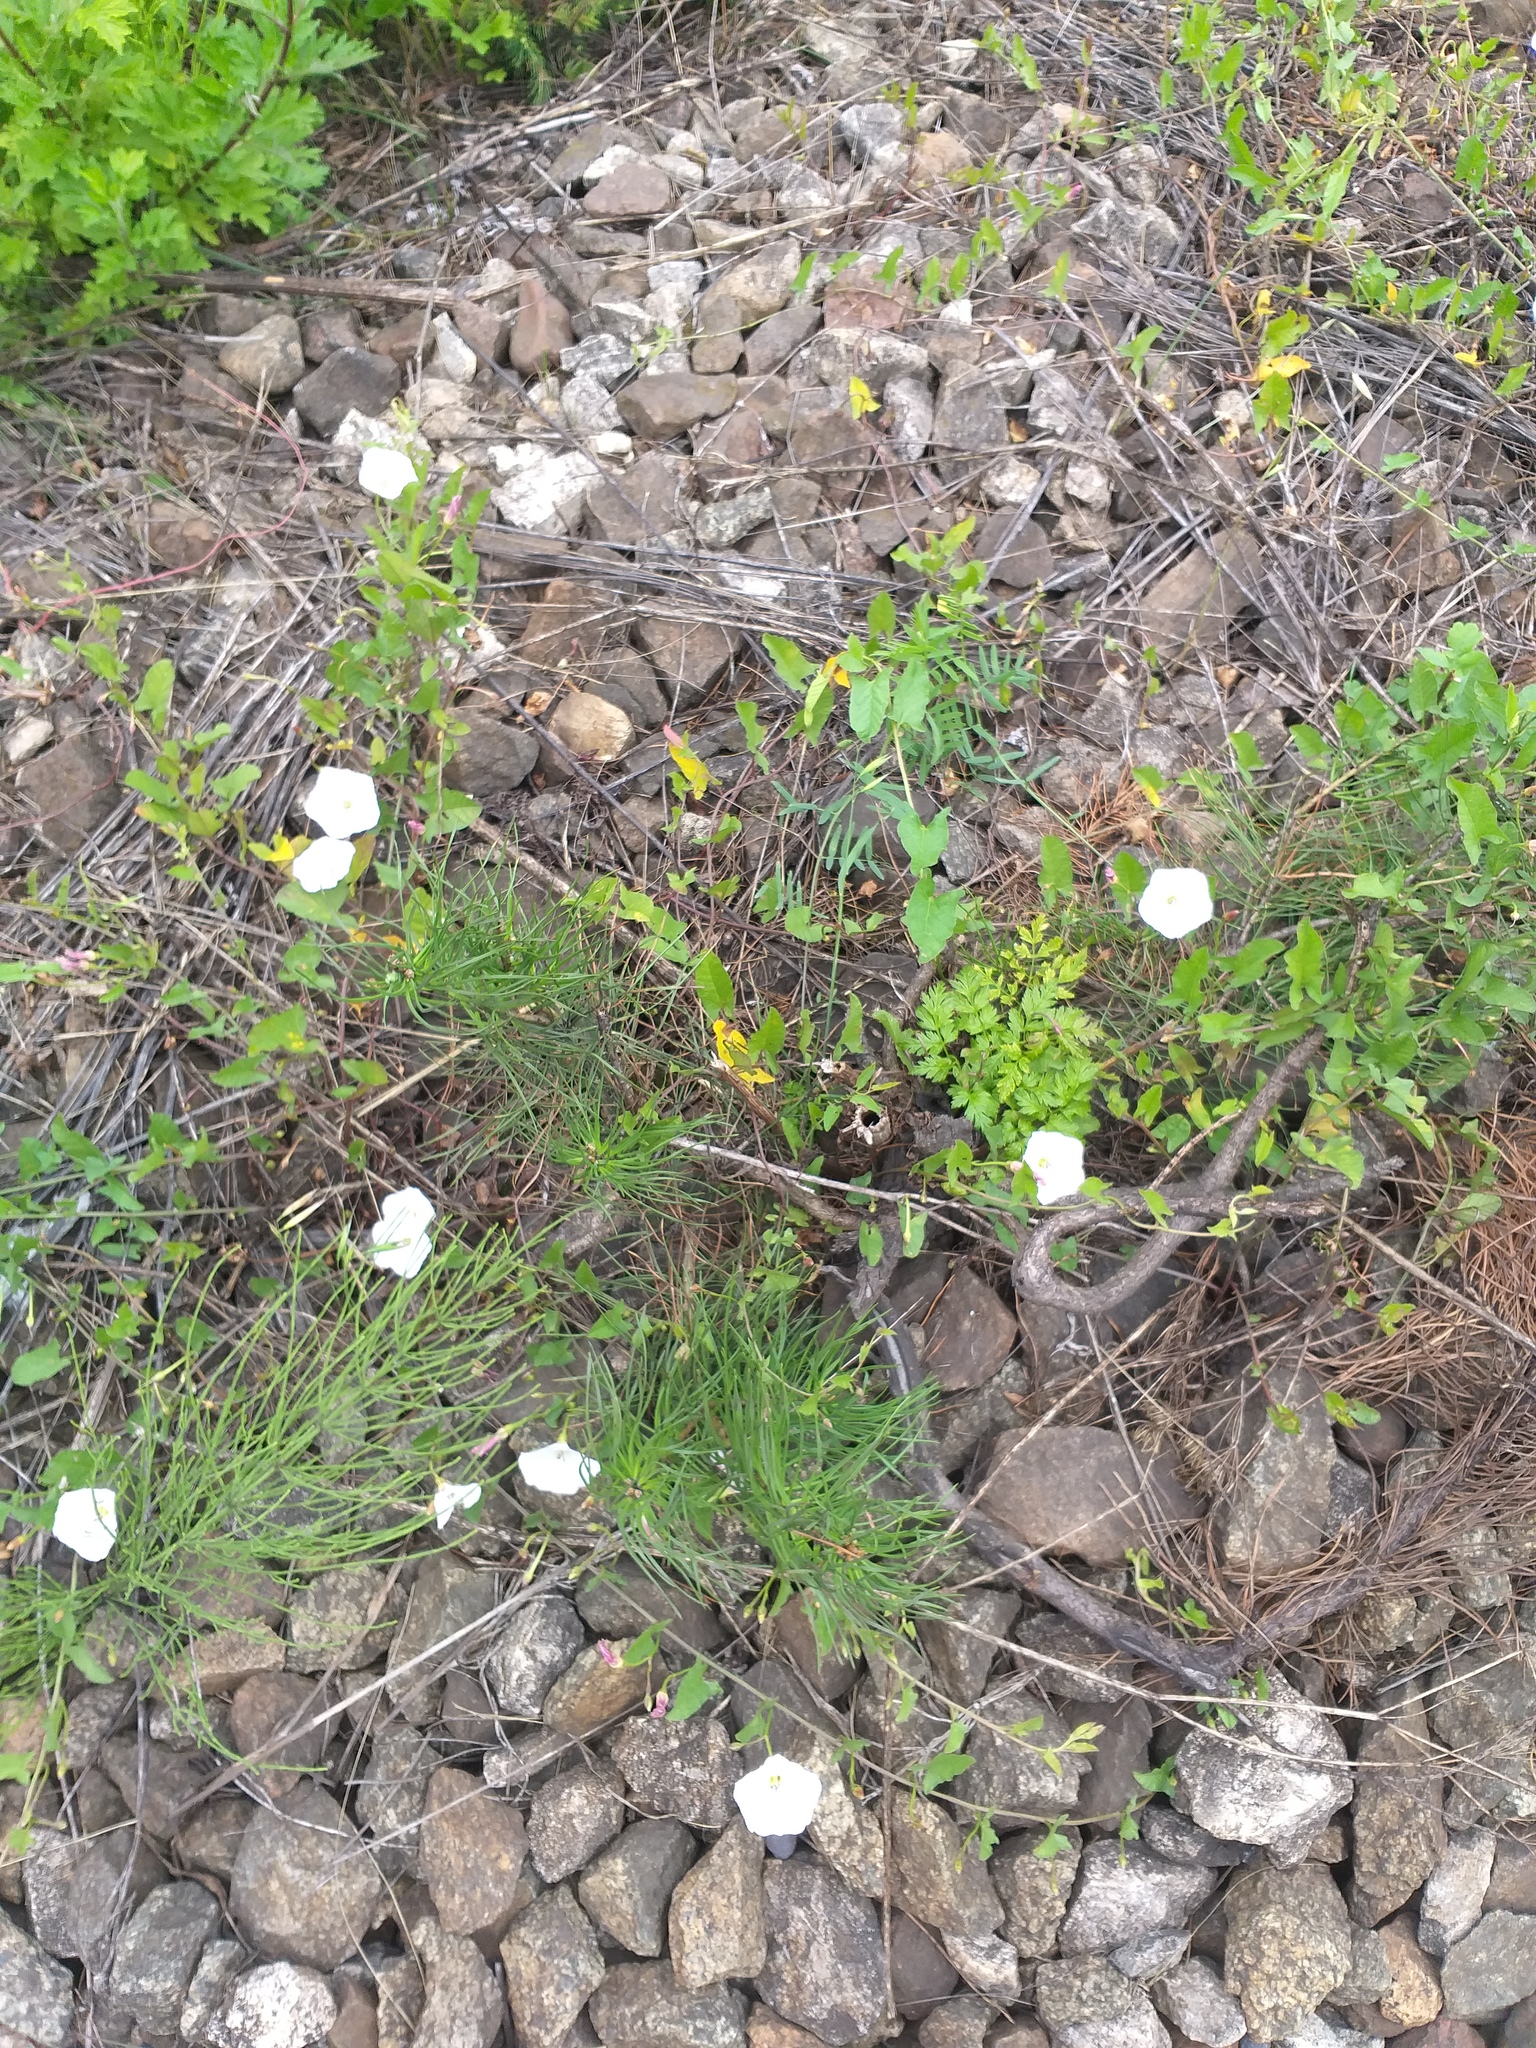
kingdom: Plantae
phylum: Tracheophyta
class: Magnoliopsida
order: Solanales
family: Convolvulaceae
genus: Convolvulus
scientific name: Convolvulus arvensis
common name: Field bindweed
